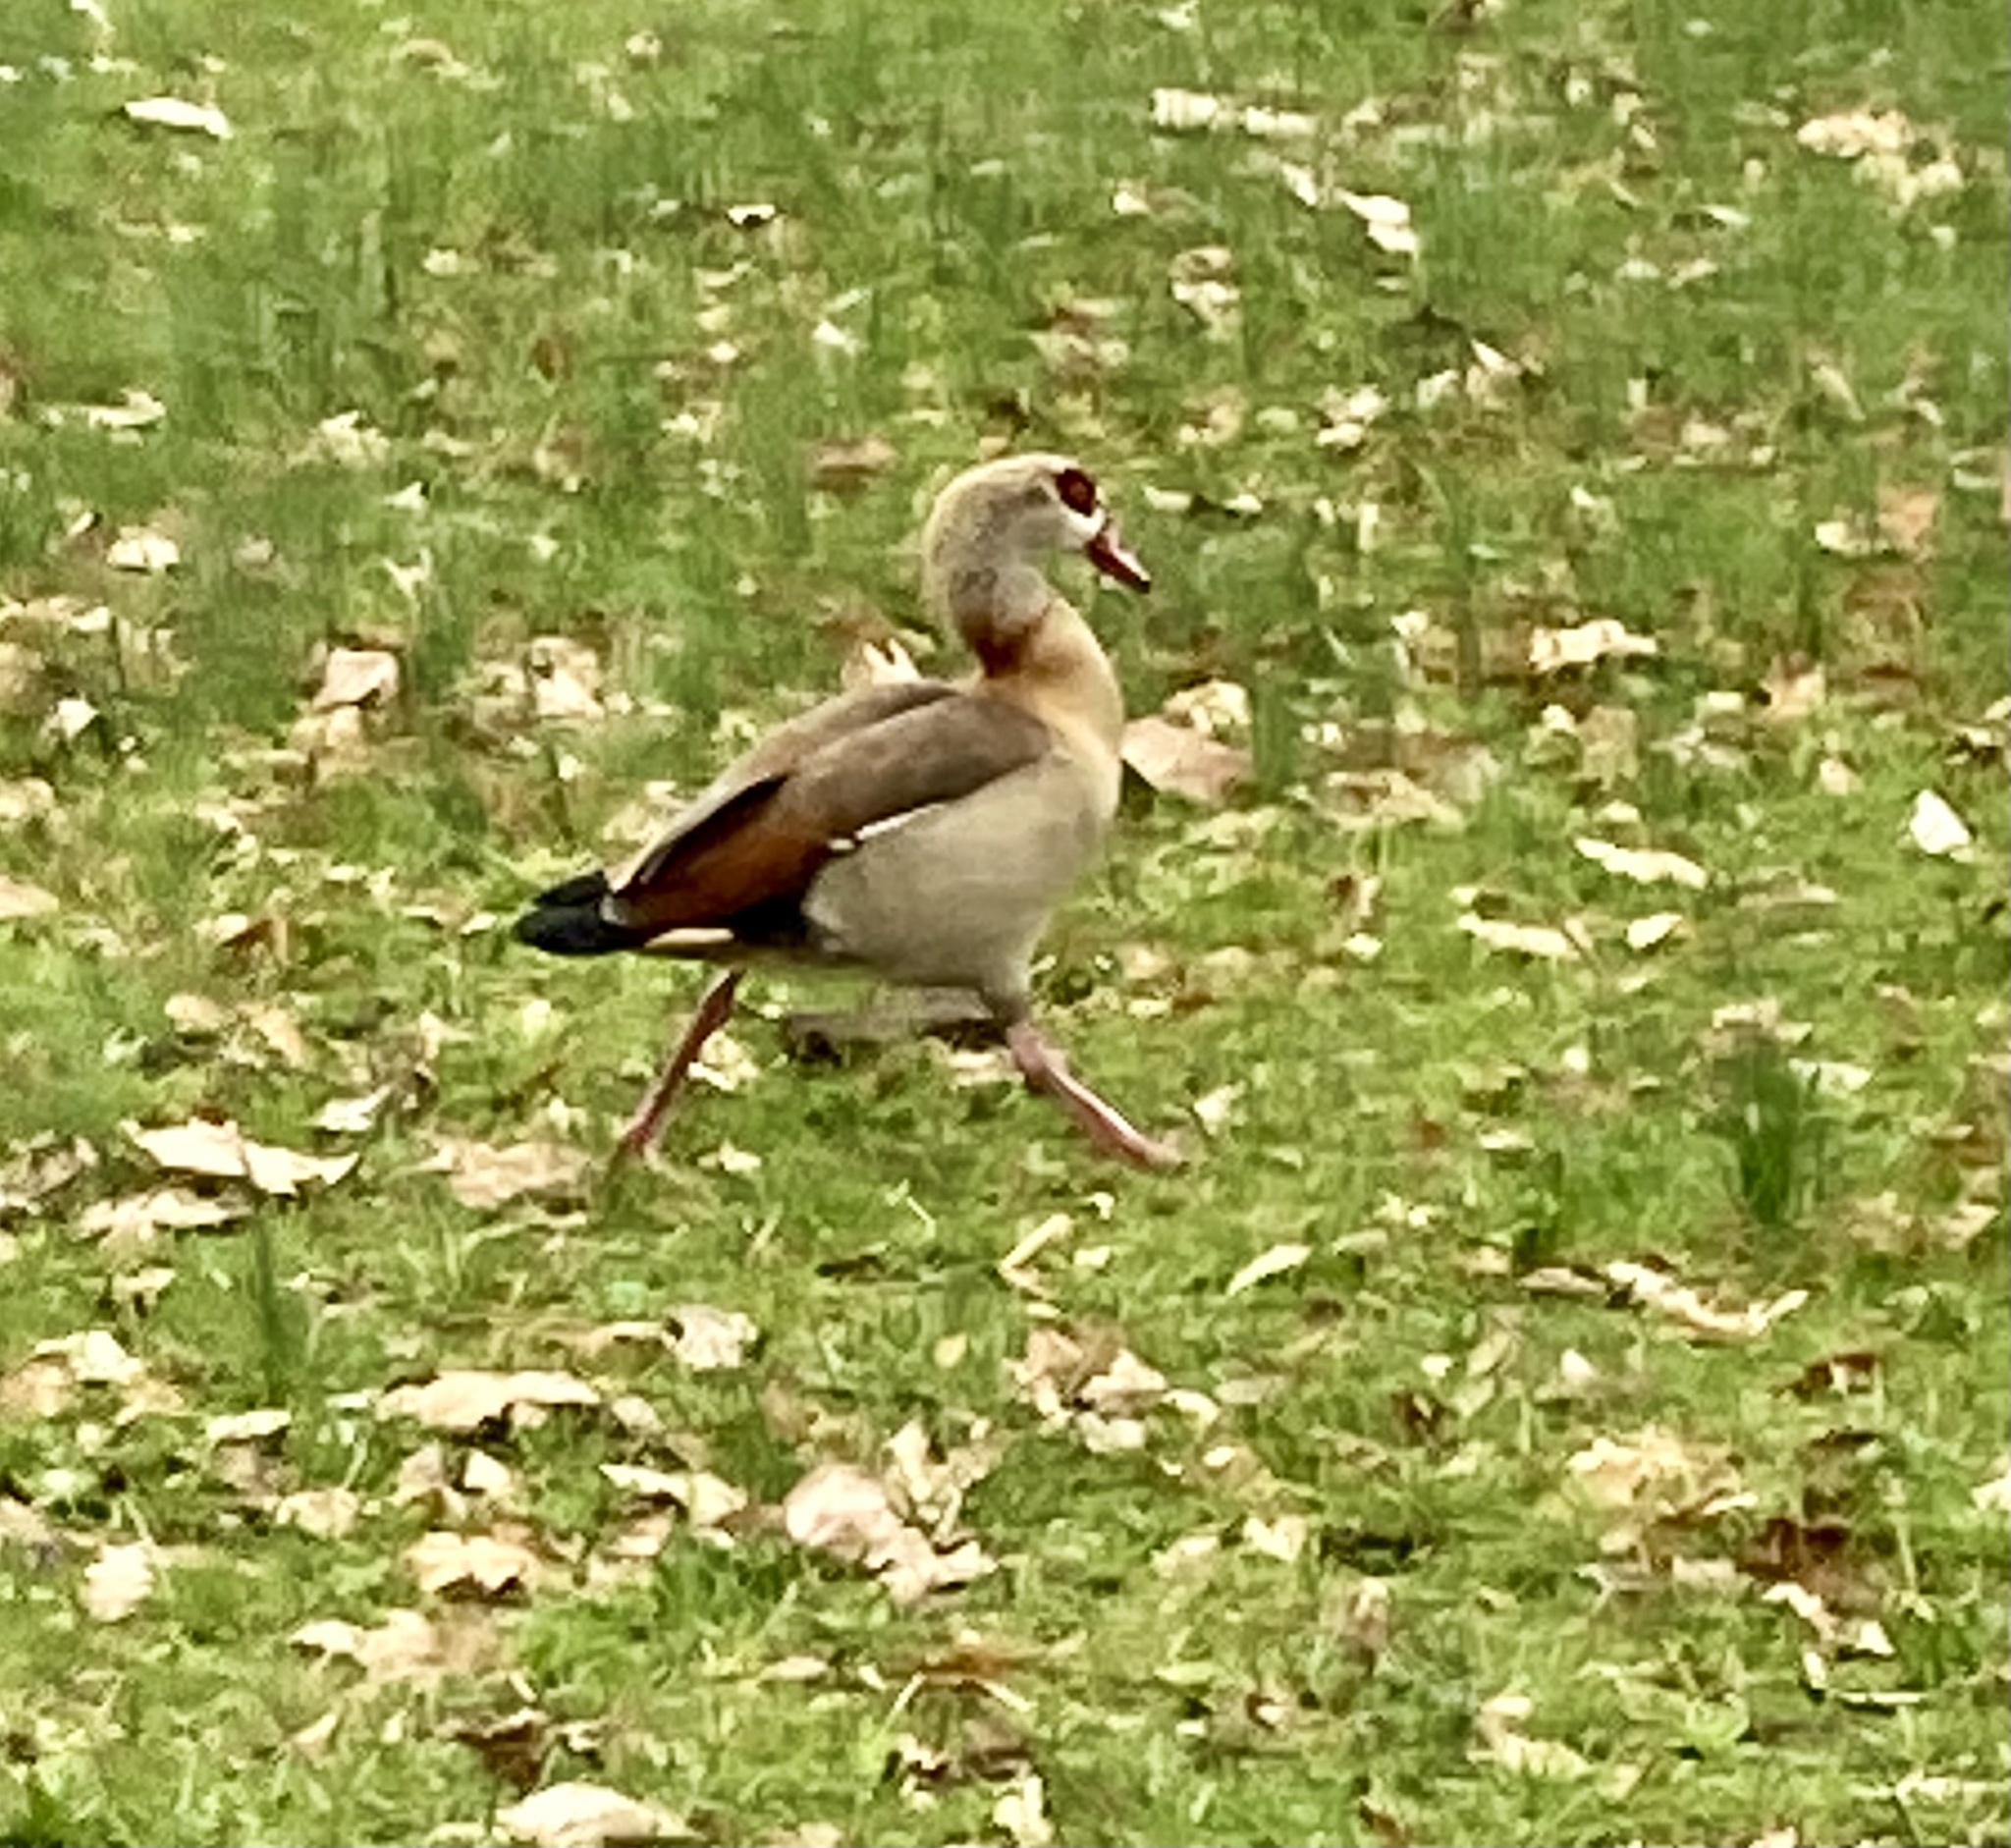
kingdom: Animalia
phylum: Chordata
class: Aves
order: Anseriformes
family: Anatidae
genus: Alopochen
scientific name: Alopochen aegyptiaca
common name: Egyptian goose
